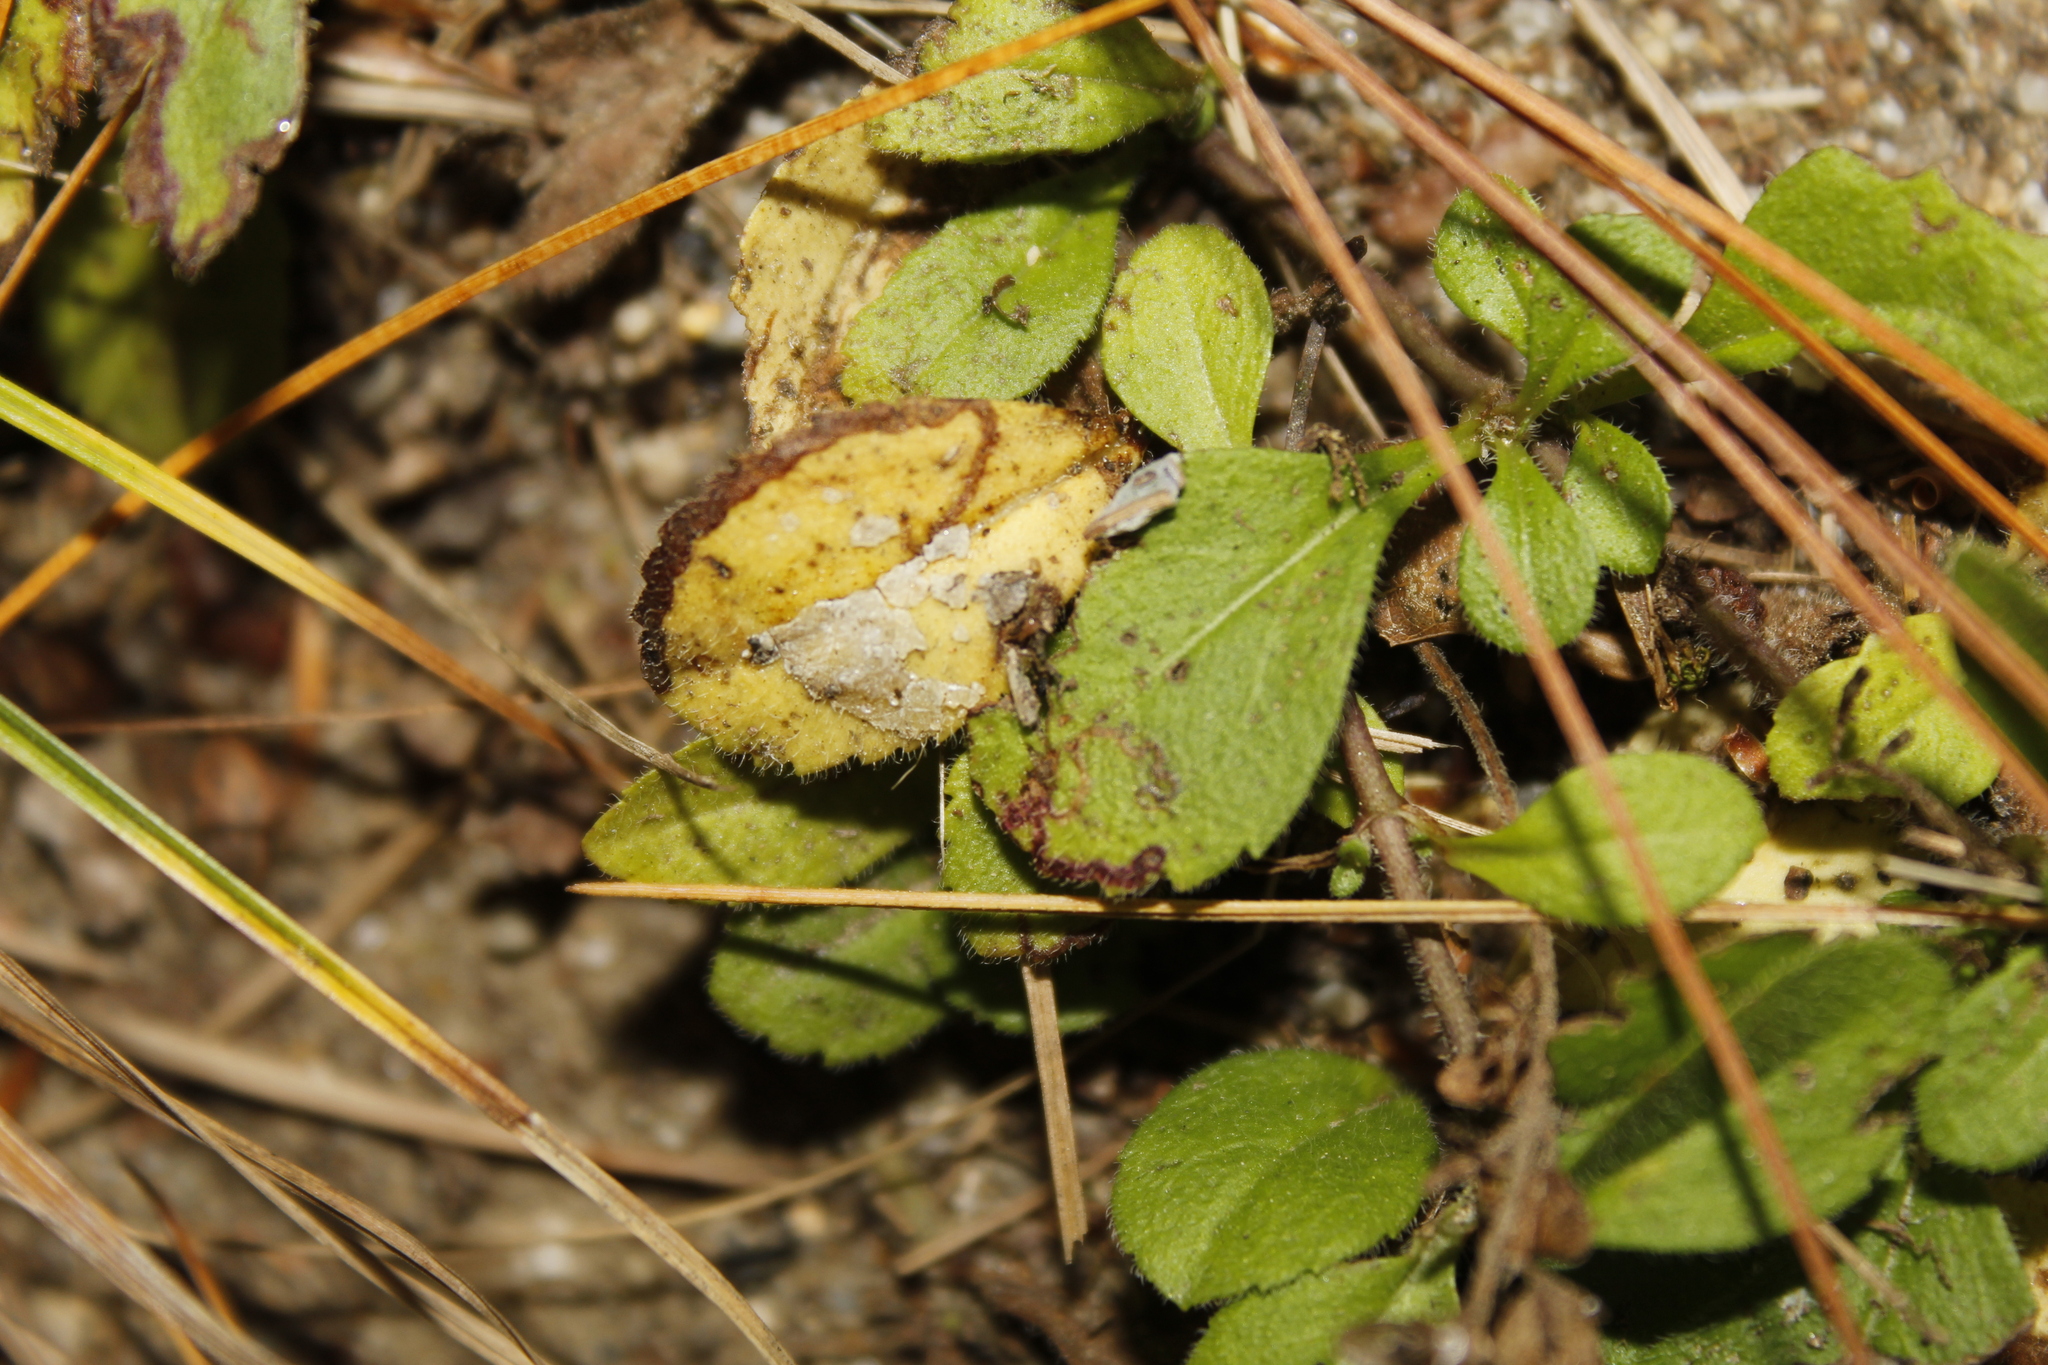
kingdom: Animalia
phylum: Arthropoda
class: Insecta
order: Diptera
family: Agromyzidae
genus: Phytomyza
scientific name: Phytomyza crassiseta
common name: Leaf-miner fly
